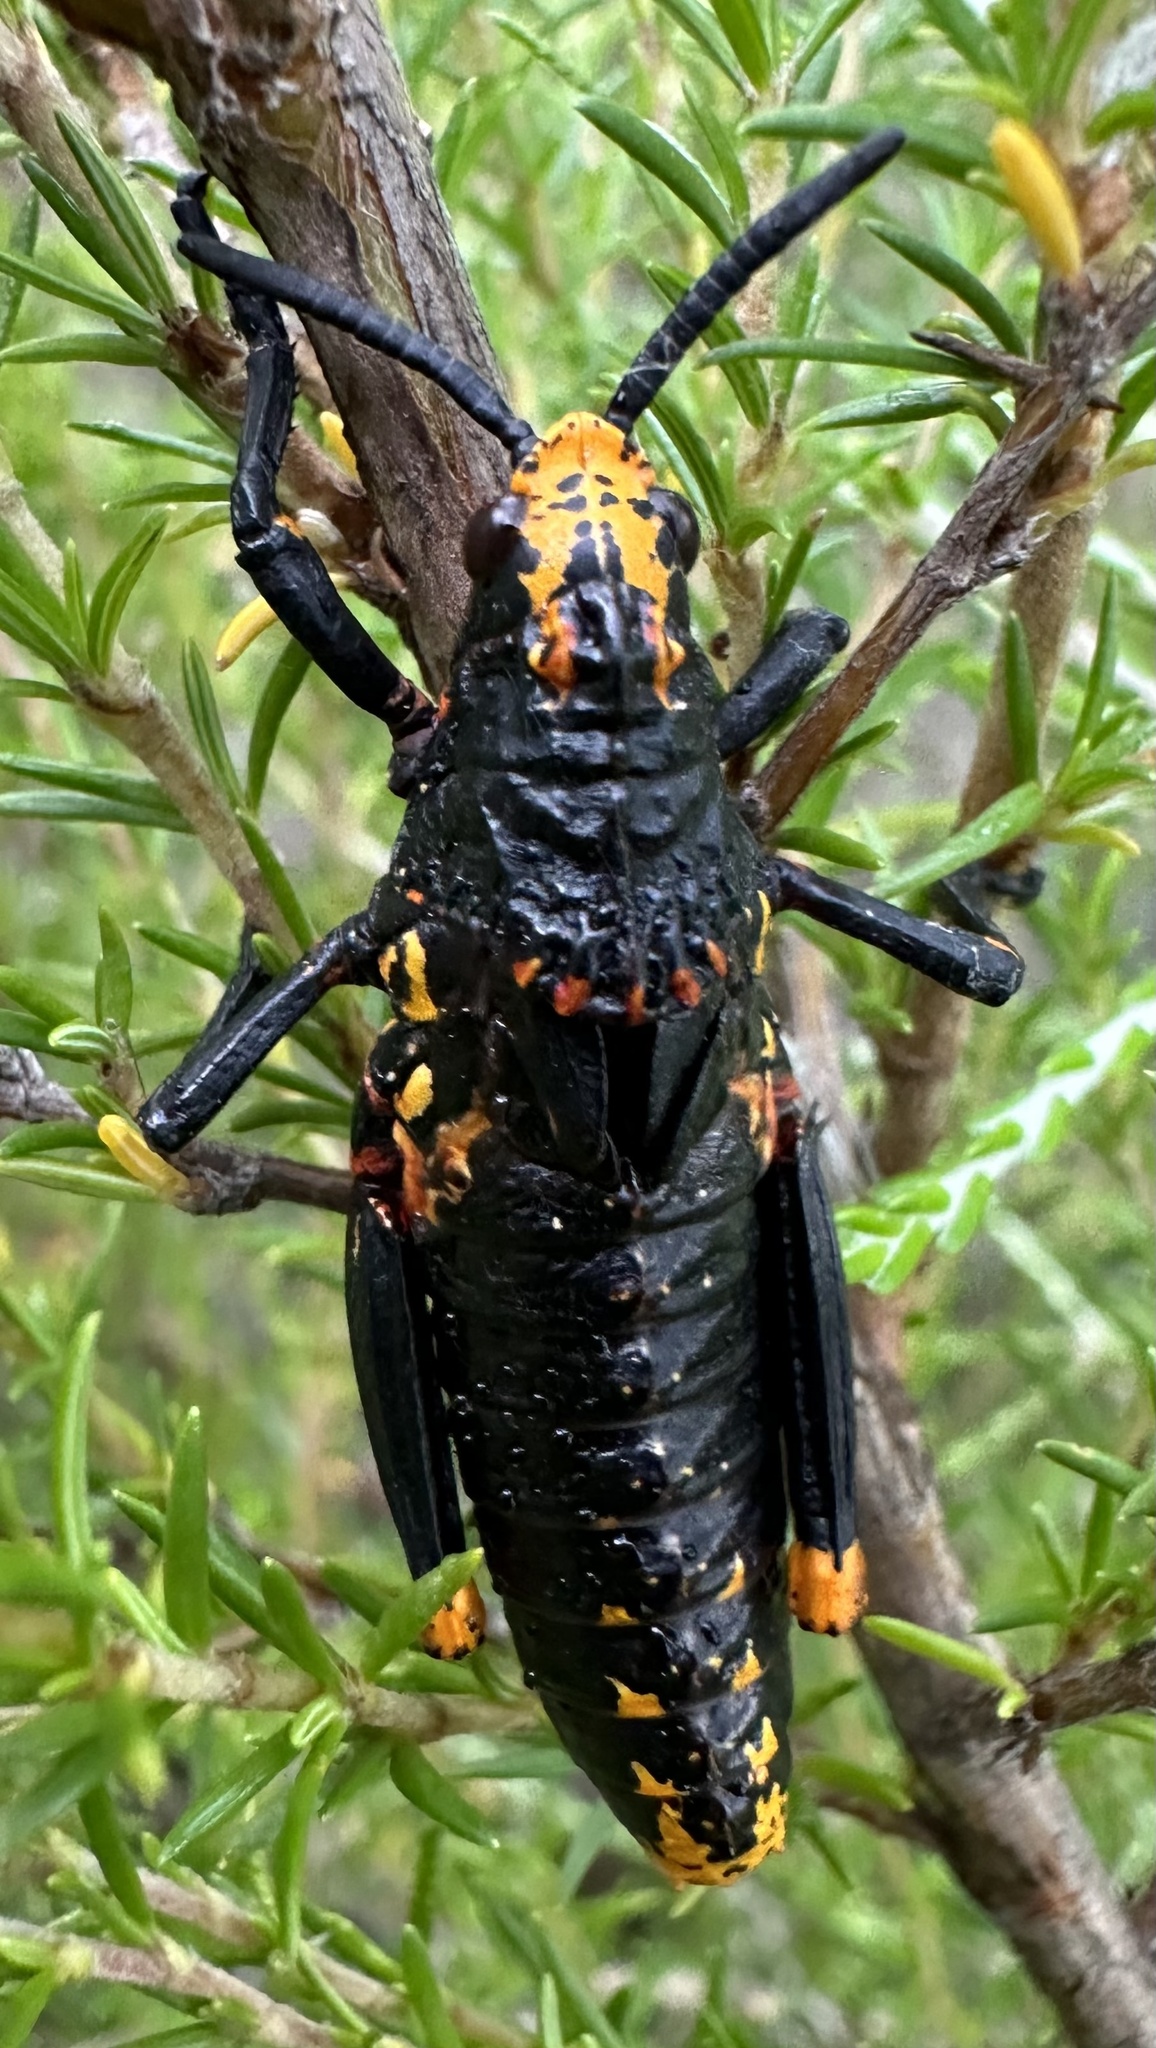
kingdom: Animalia
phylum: Arthropoda
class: Insecta
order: Orthoptera
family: Pyrgomorphidae
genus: Dictyophorus
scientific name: Dictyophorus spumans
